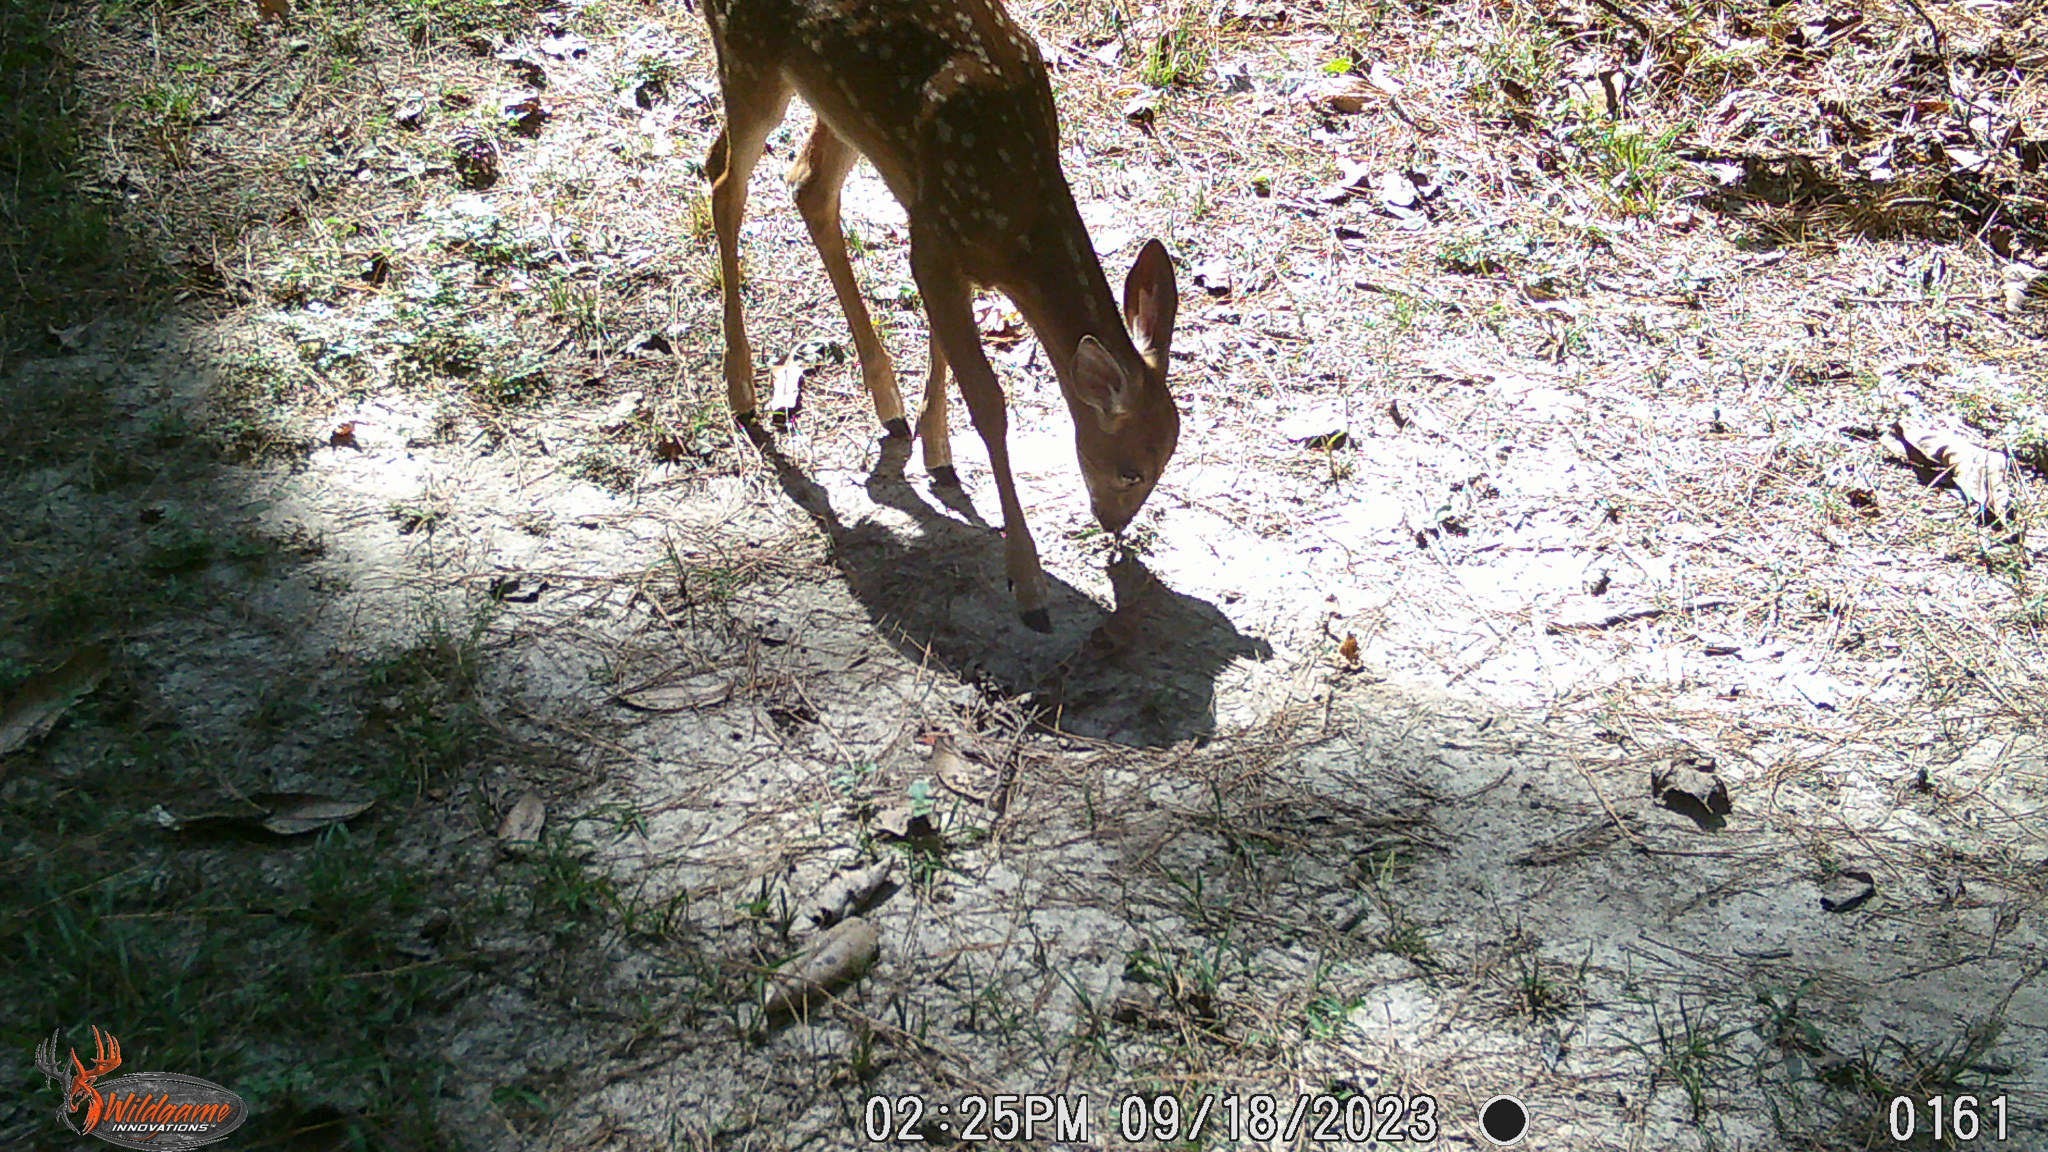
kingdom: Animalia
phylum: Chordata
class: Mammalia
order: Artiodactyla
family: Cervidae
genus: Odocoileus
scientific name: Odocoileus virginianus
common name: White-tailed deer
